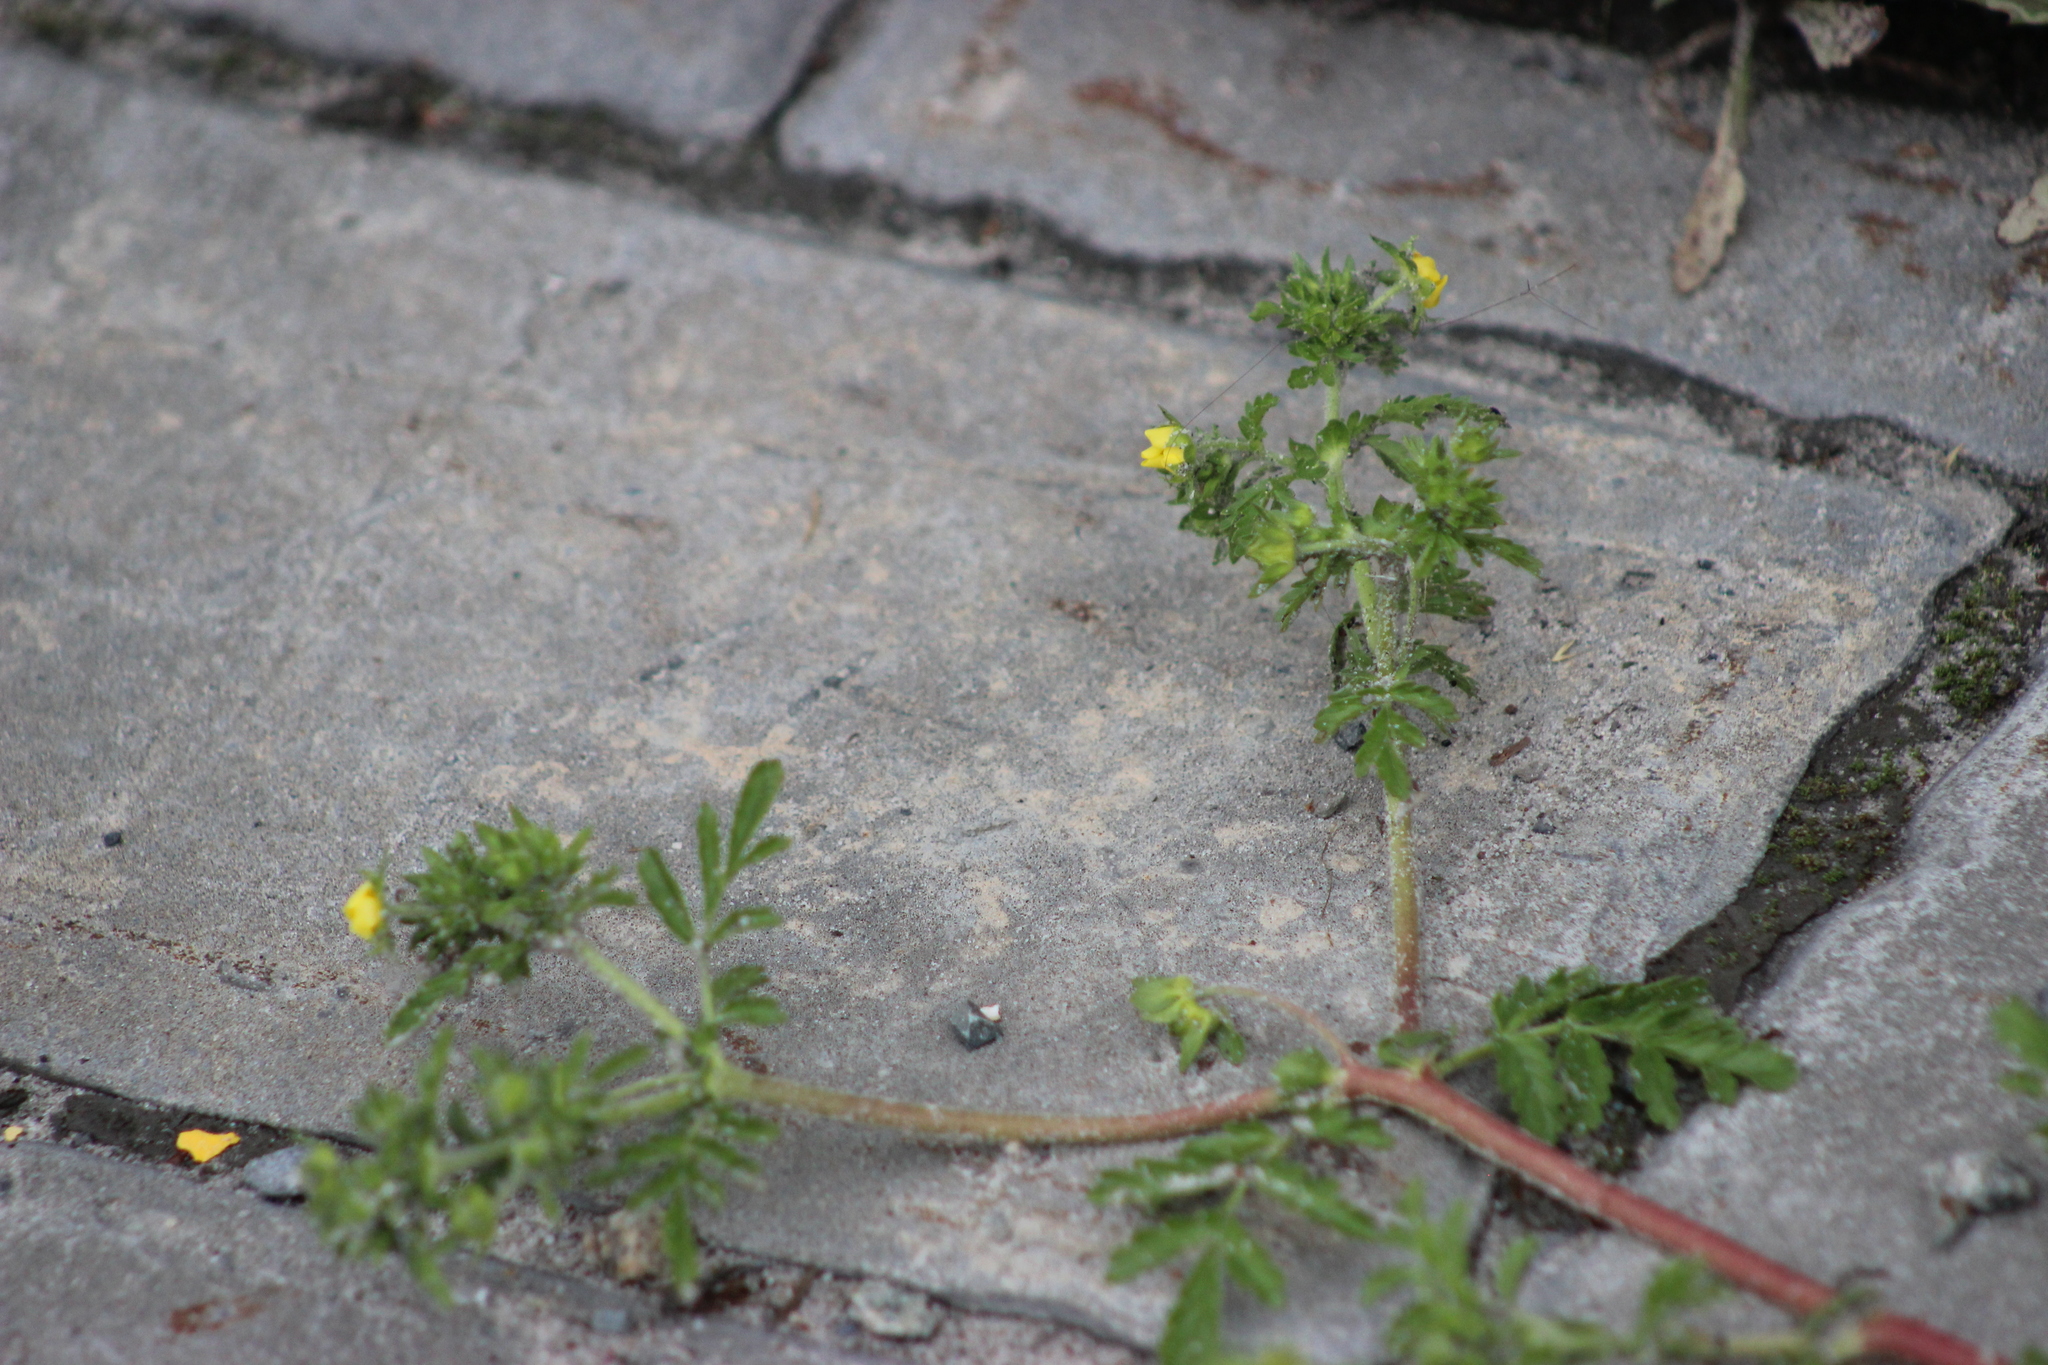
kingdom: Plantae
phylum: Tracheophyta
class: Magnoliopsida
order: Rosales
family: Rosaceae
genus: Potentilla
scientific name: Potentilla supina
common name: Prostrate cinquefoil
